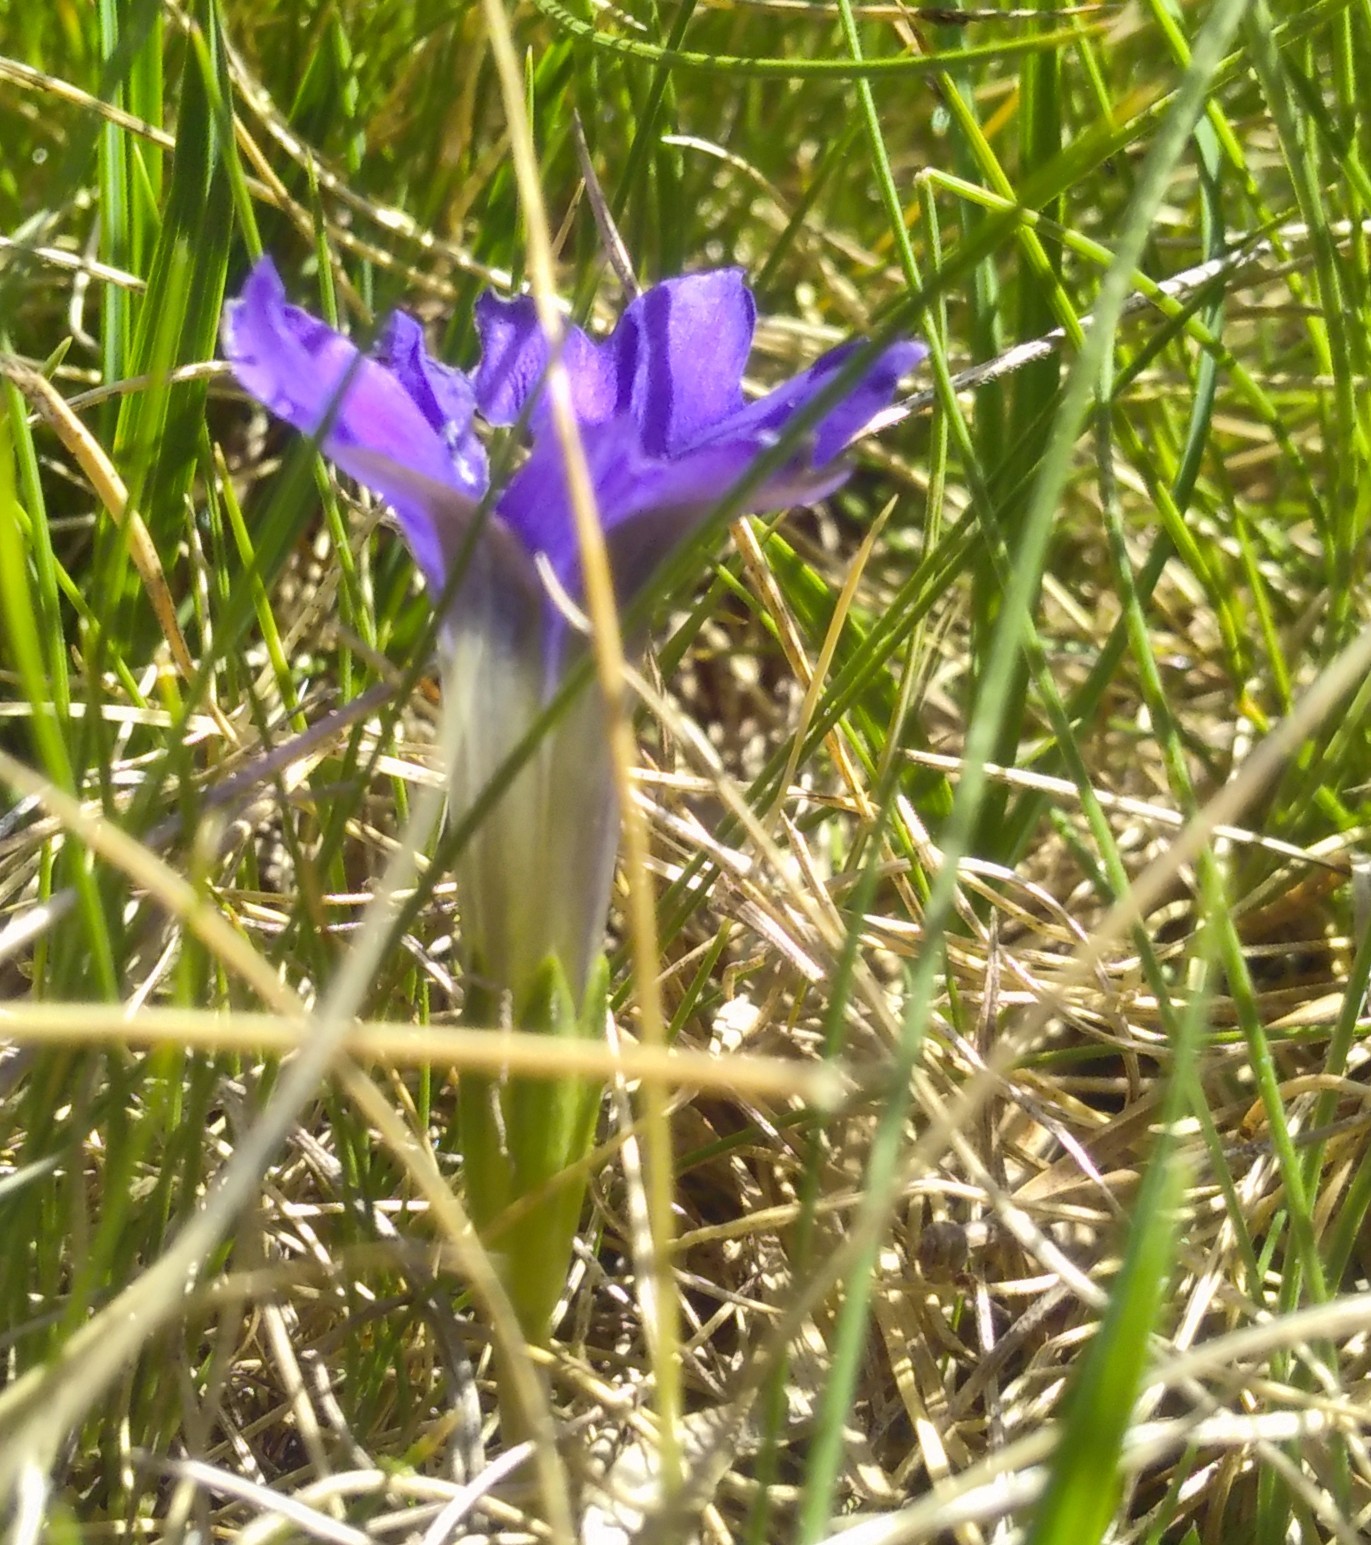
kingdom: Plantae
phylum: Tracheophyta
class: Magnoliopsida
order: Gentianales
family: Gentianaceae
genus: Gentiana
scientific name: Gentiana pyrenaica
